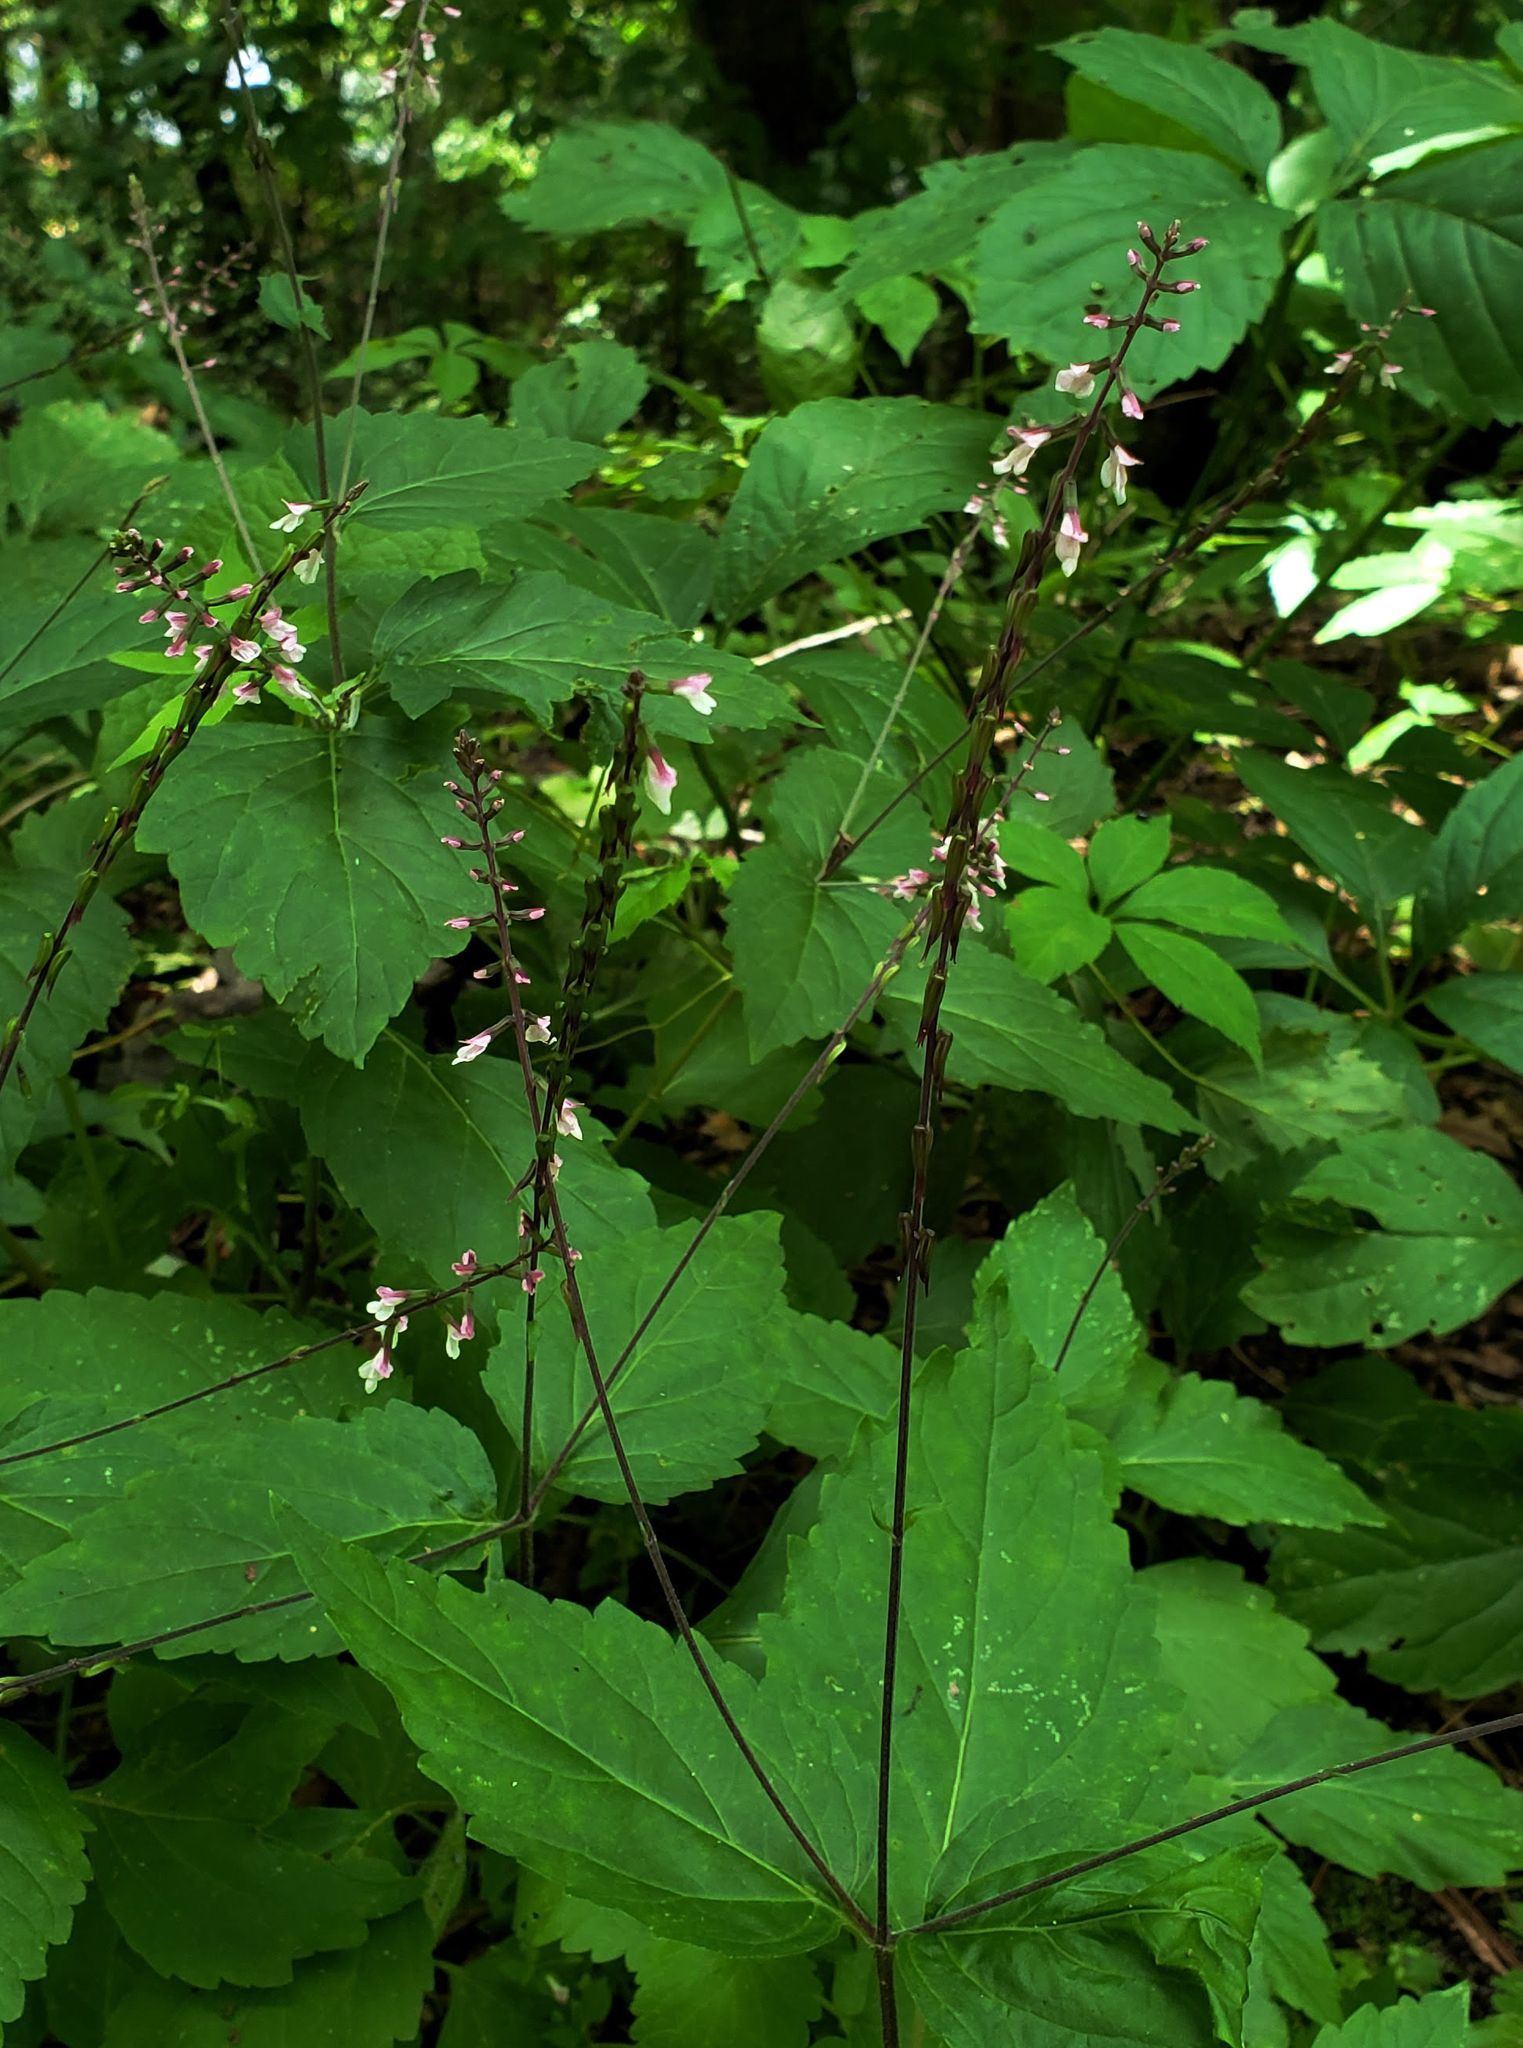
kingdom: Plantae
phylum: Tracheophyta
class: Magnoliopsida
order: Lamiales
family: Phrymaceae
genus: Phryma
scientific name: Phryma leptostachya
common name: American lopseed
